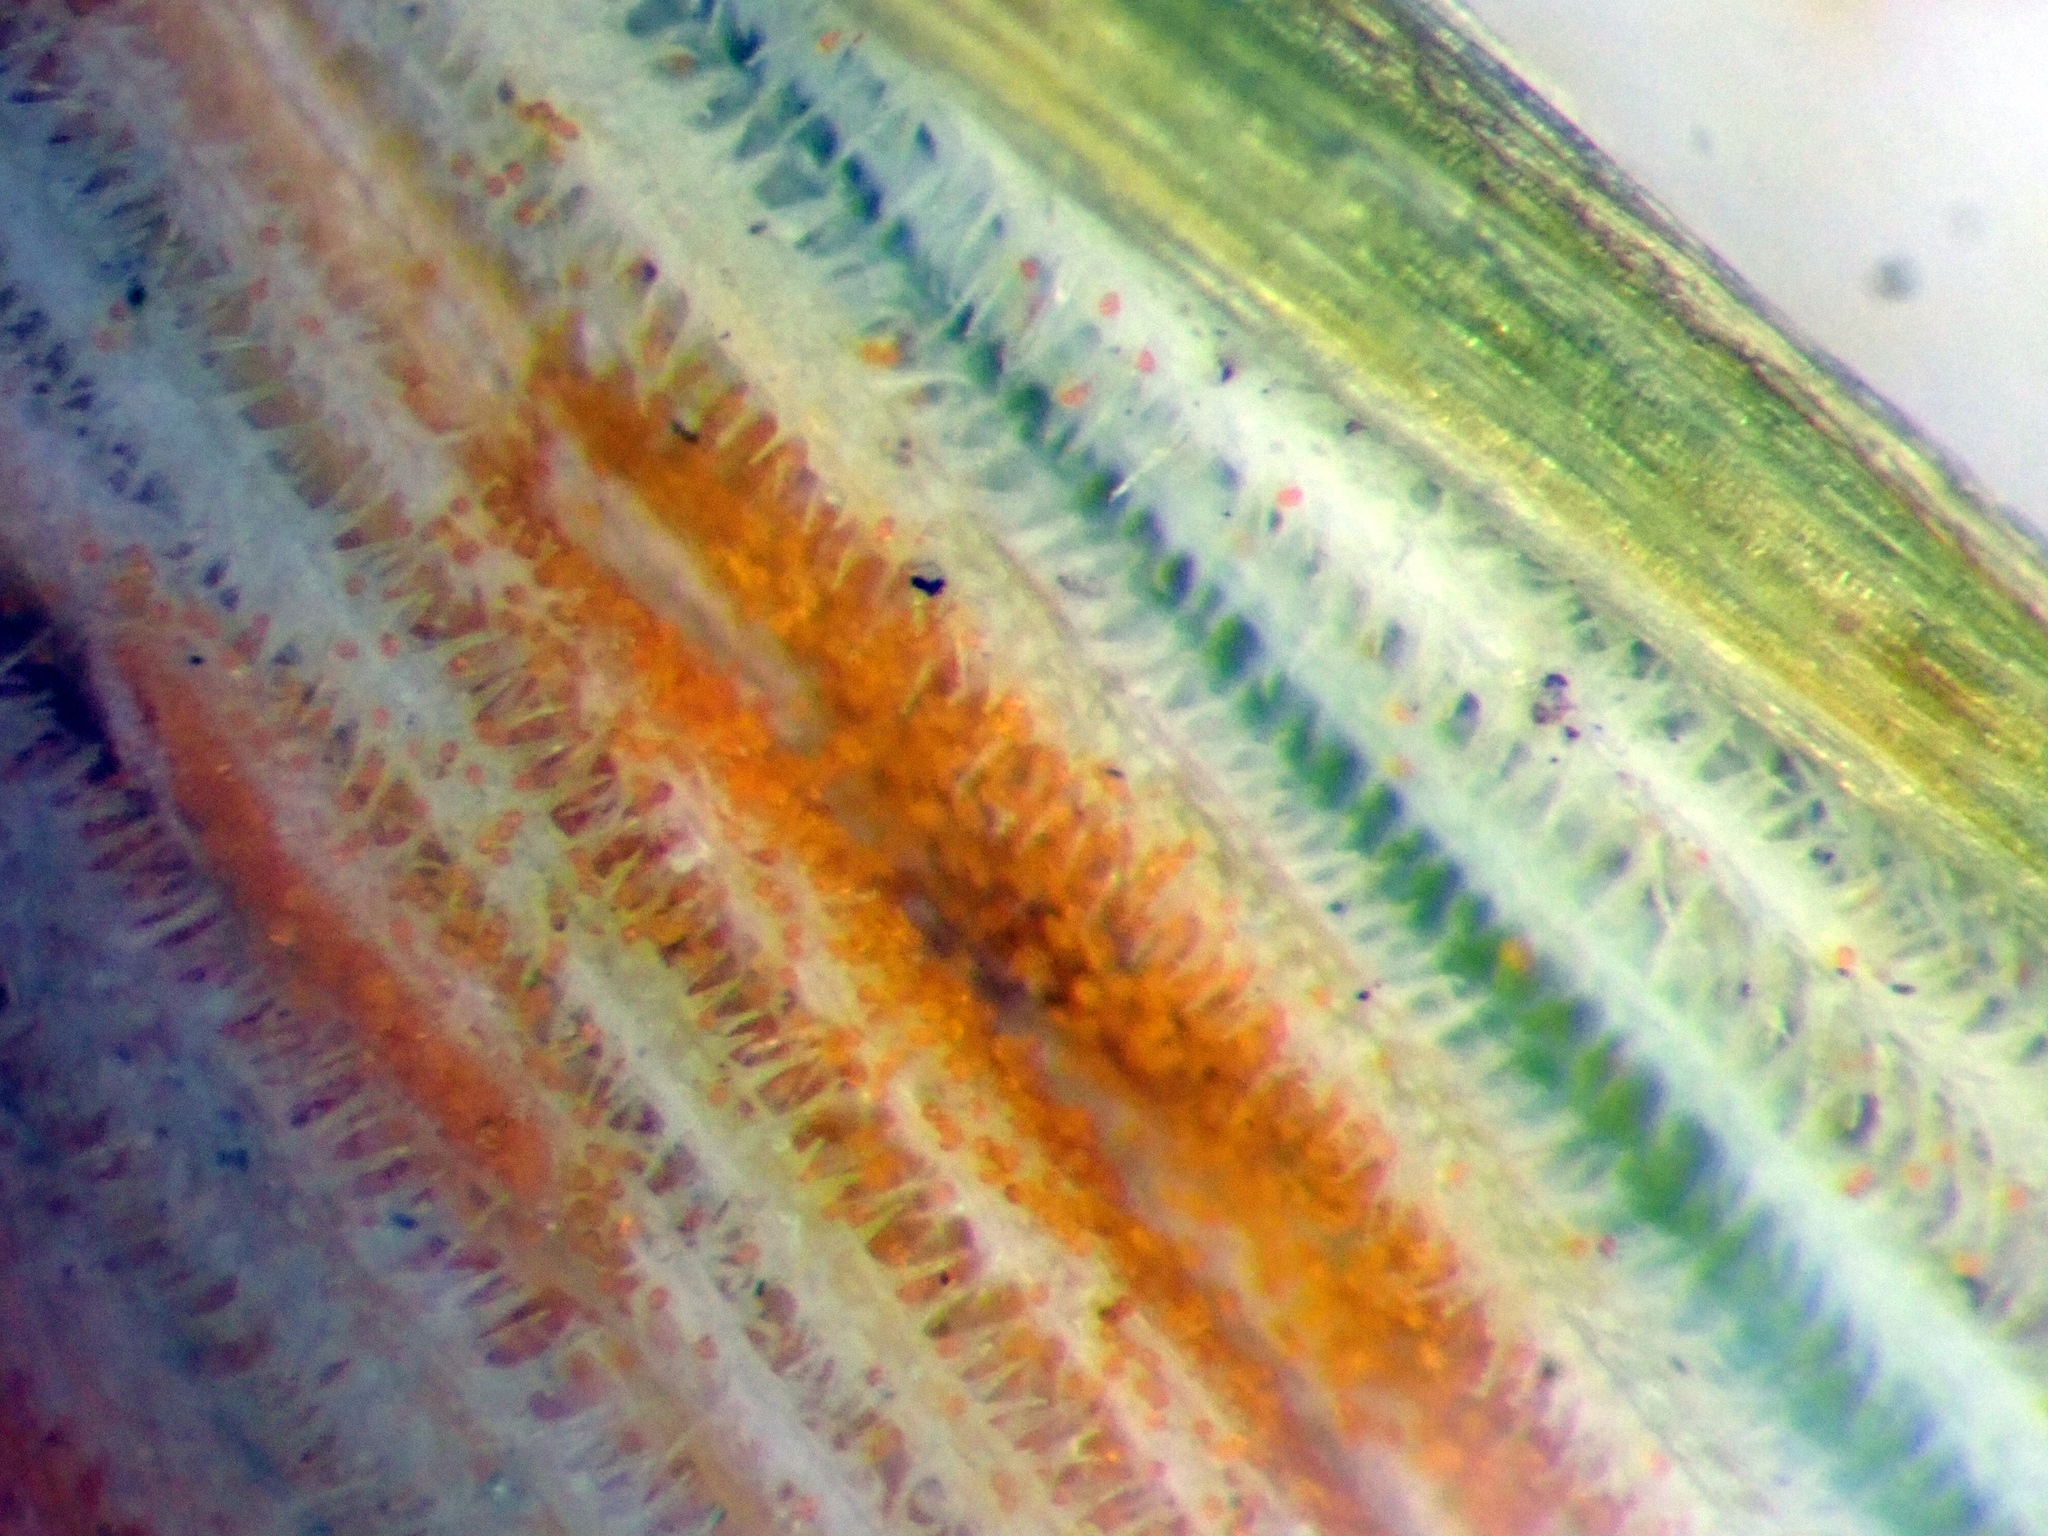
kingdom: Fungi
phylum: Basidiomycota
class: Pucciniomycetes
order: Pucciniales
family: Pucciniaceae
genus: Puccinia
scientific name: Puccinia pygmaea
